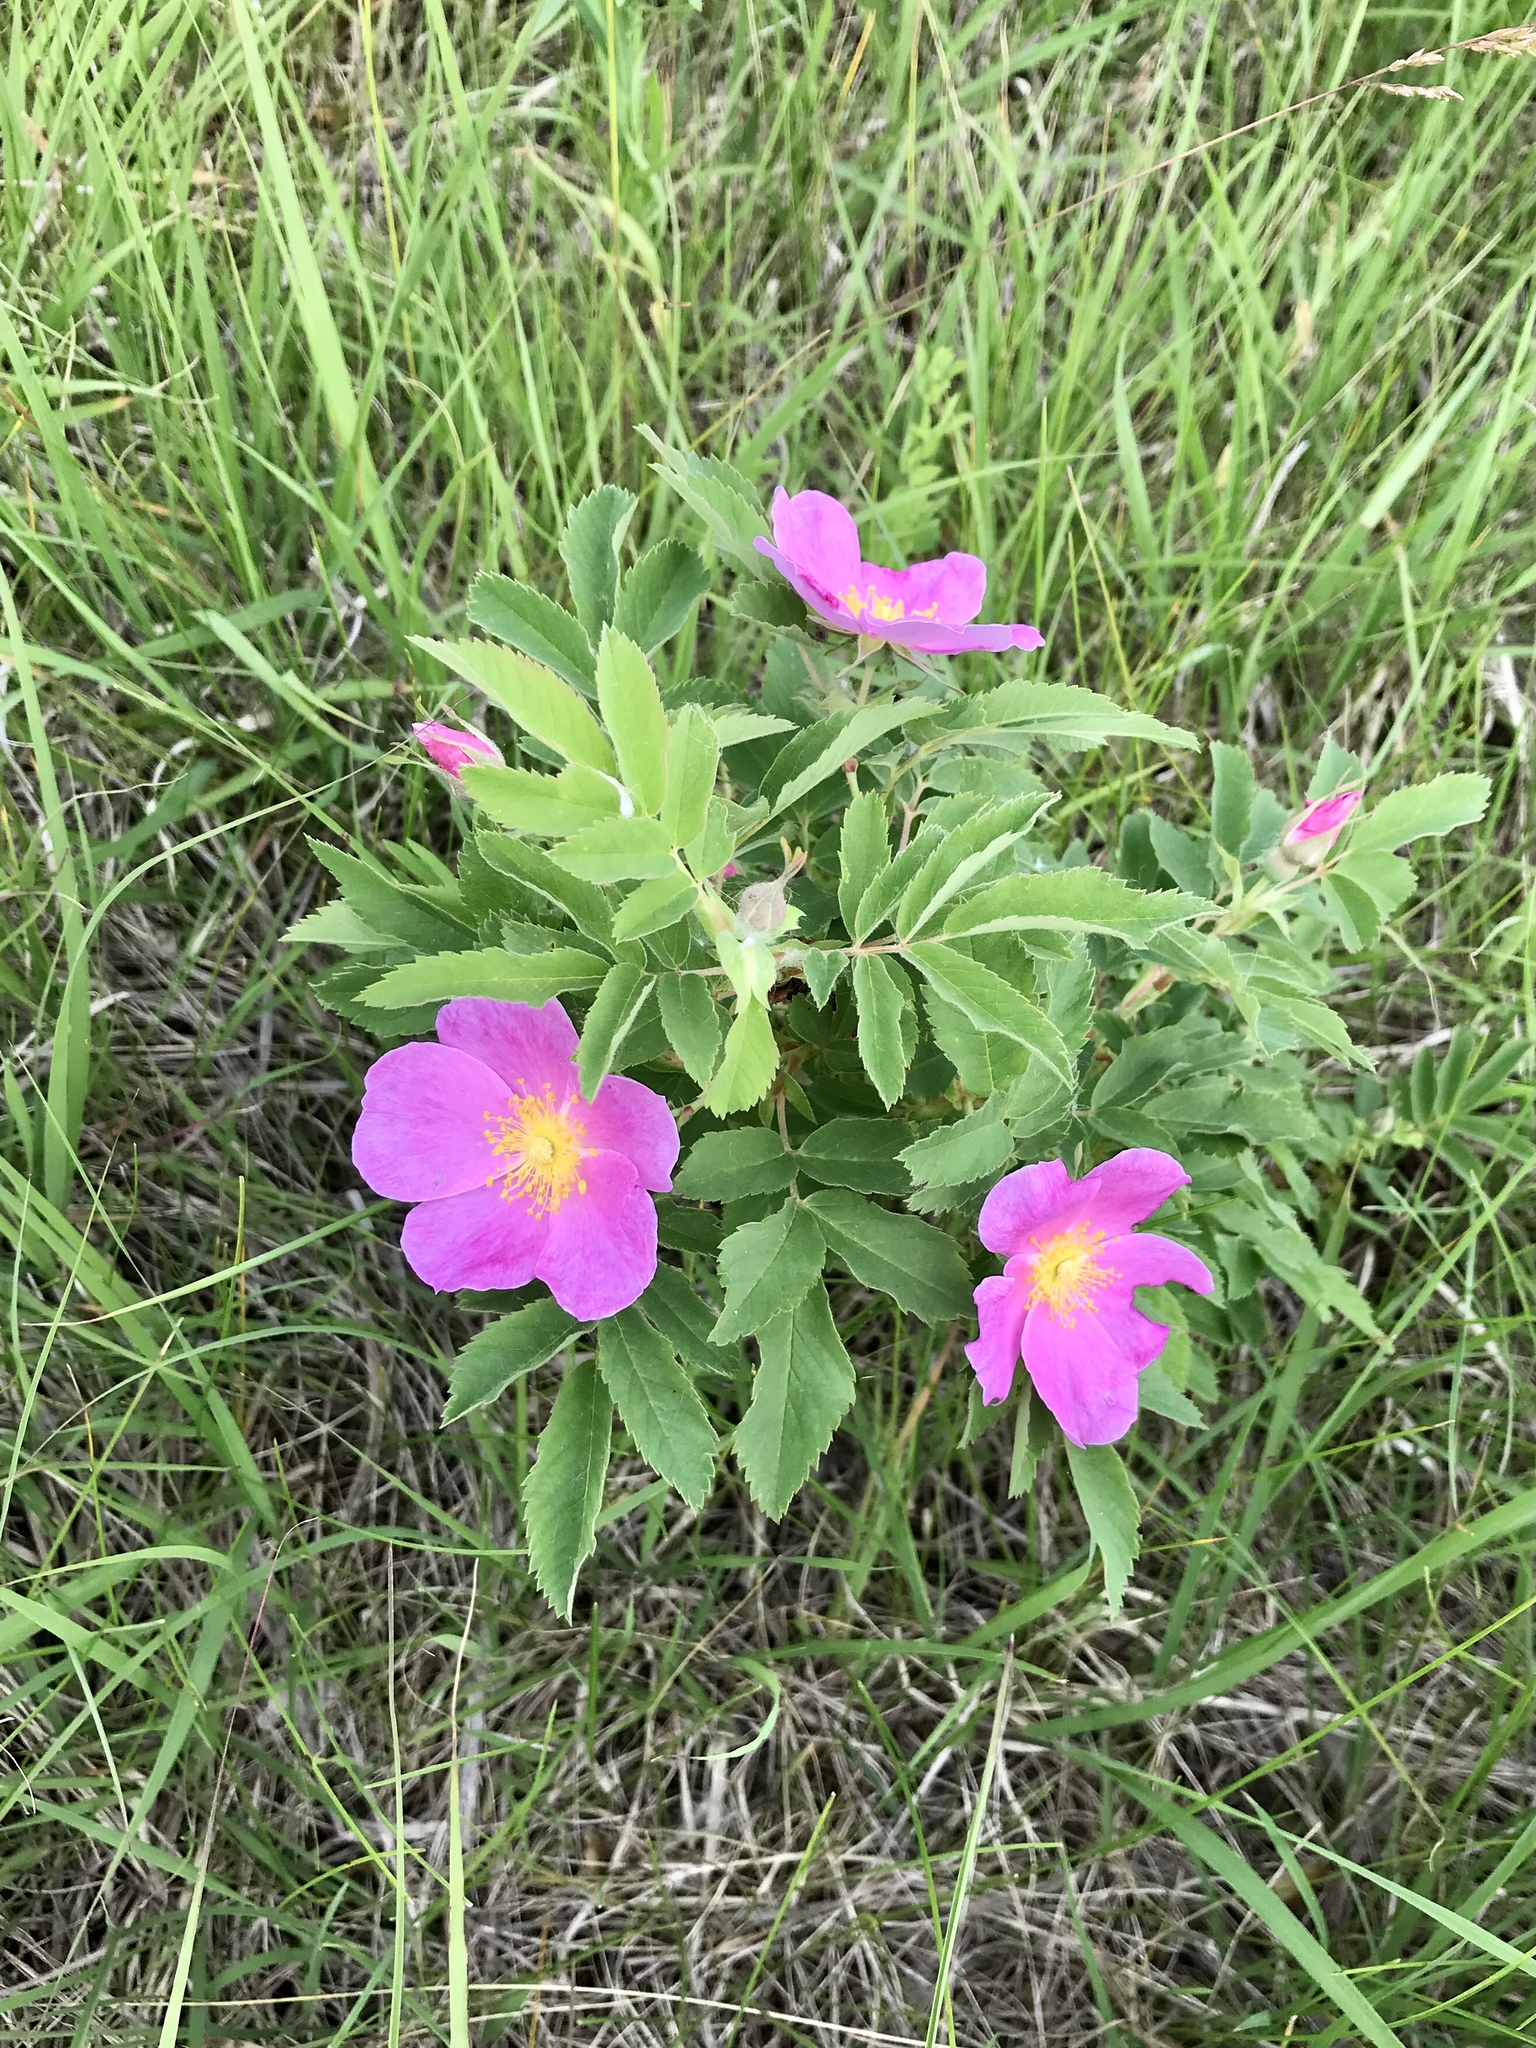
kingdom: Plantae
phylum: Tracheophyta
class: Magnoliopsida
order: Rosales
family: Rosaceae
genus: Rosa
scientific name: Rosa arkansana
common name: Prairie rose
